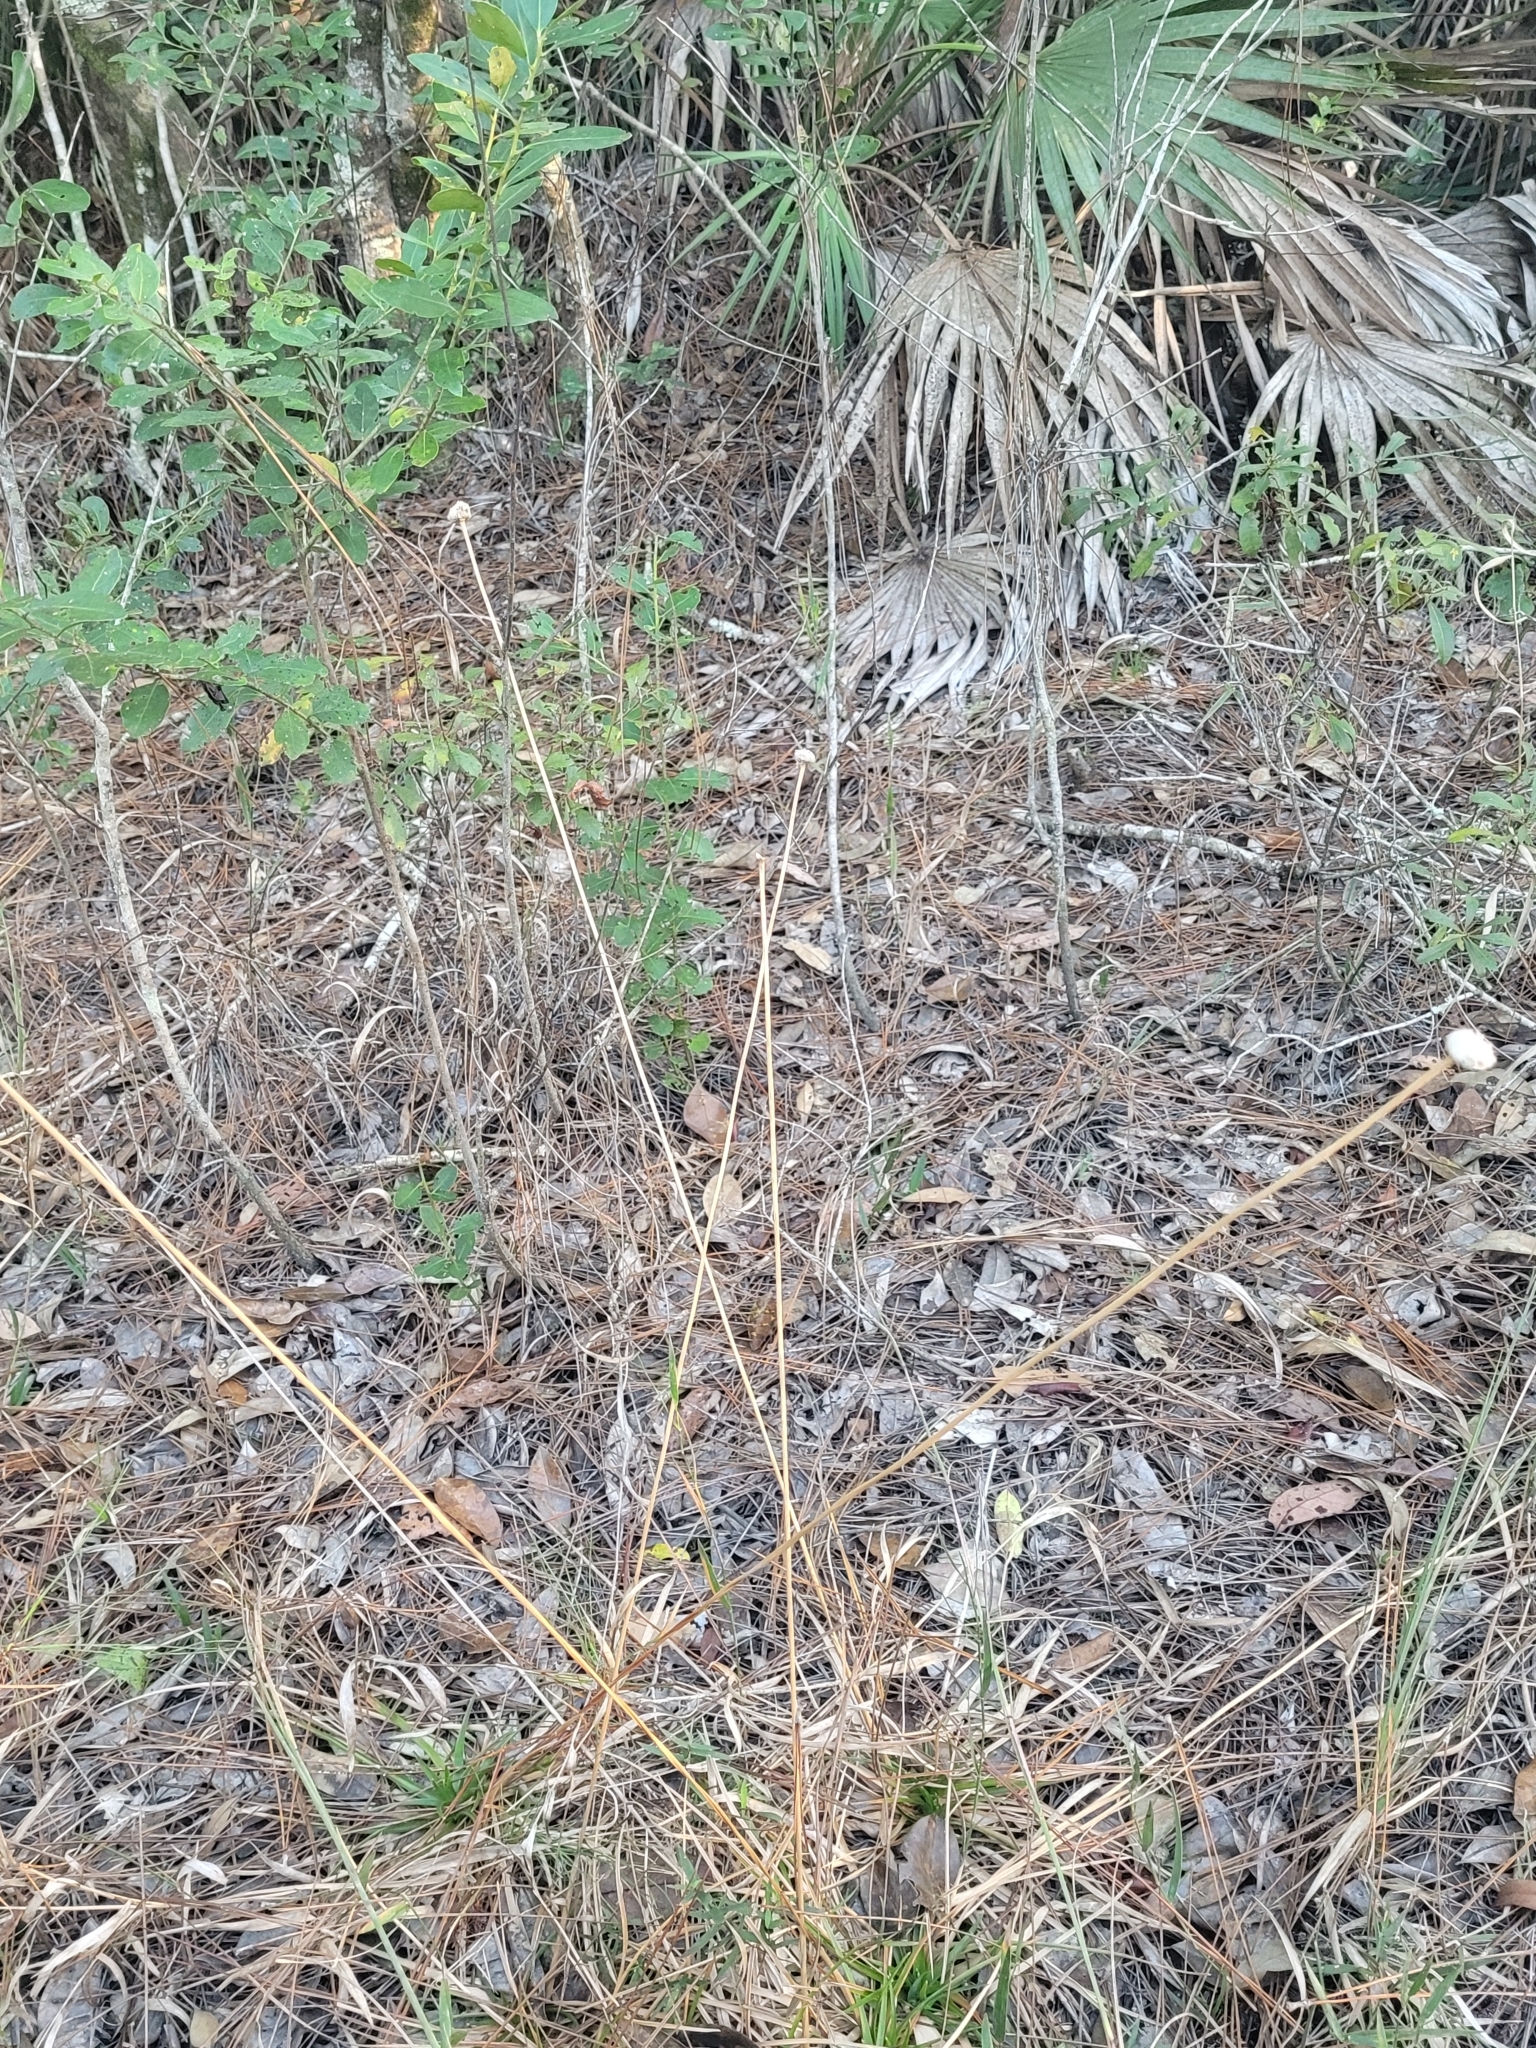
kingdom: Plantae
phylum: Tracheophyta
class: Liliopsida
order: Poales
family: Eriocaulaceae
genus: Eriocaulon
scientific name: Eriocaulon decangulare
